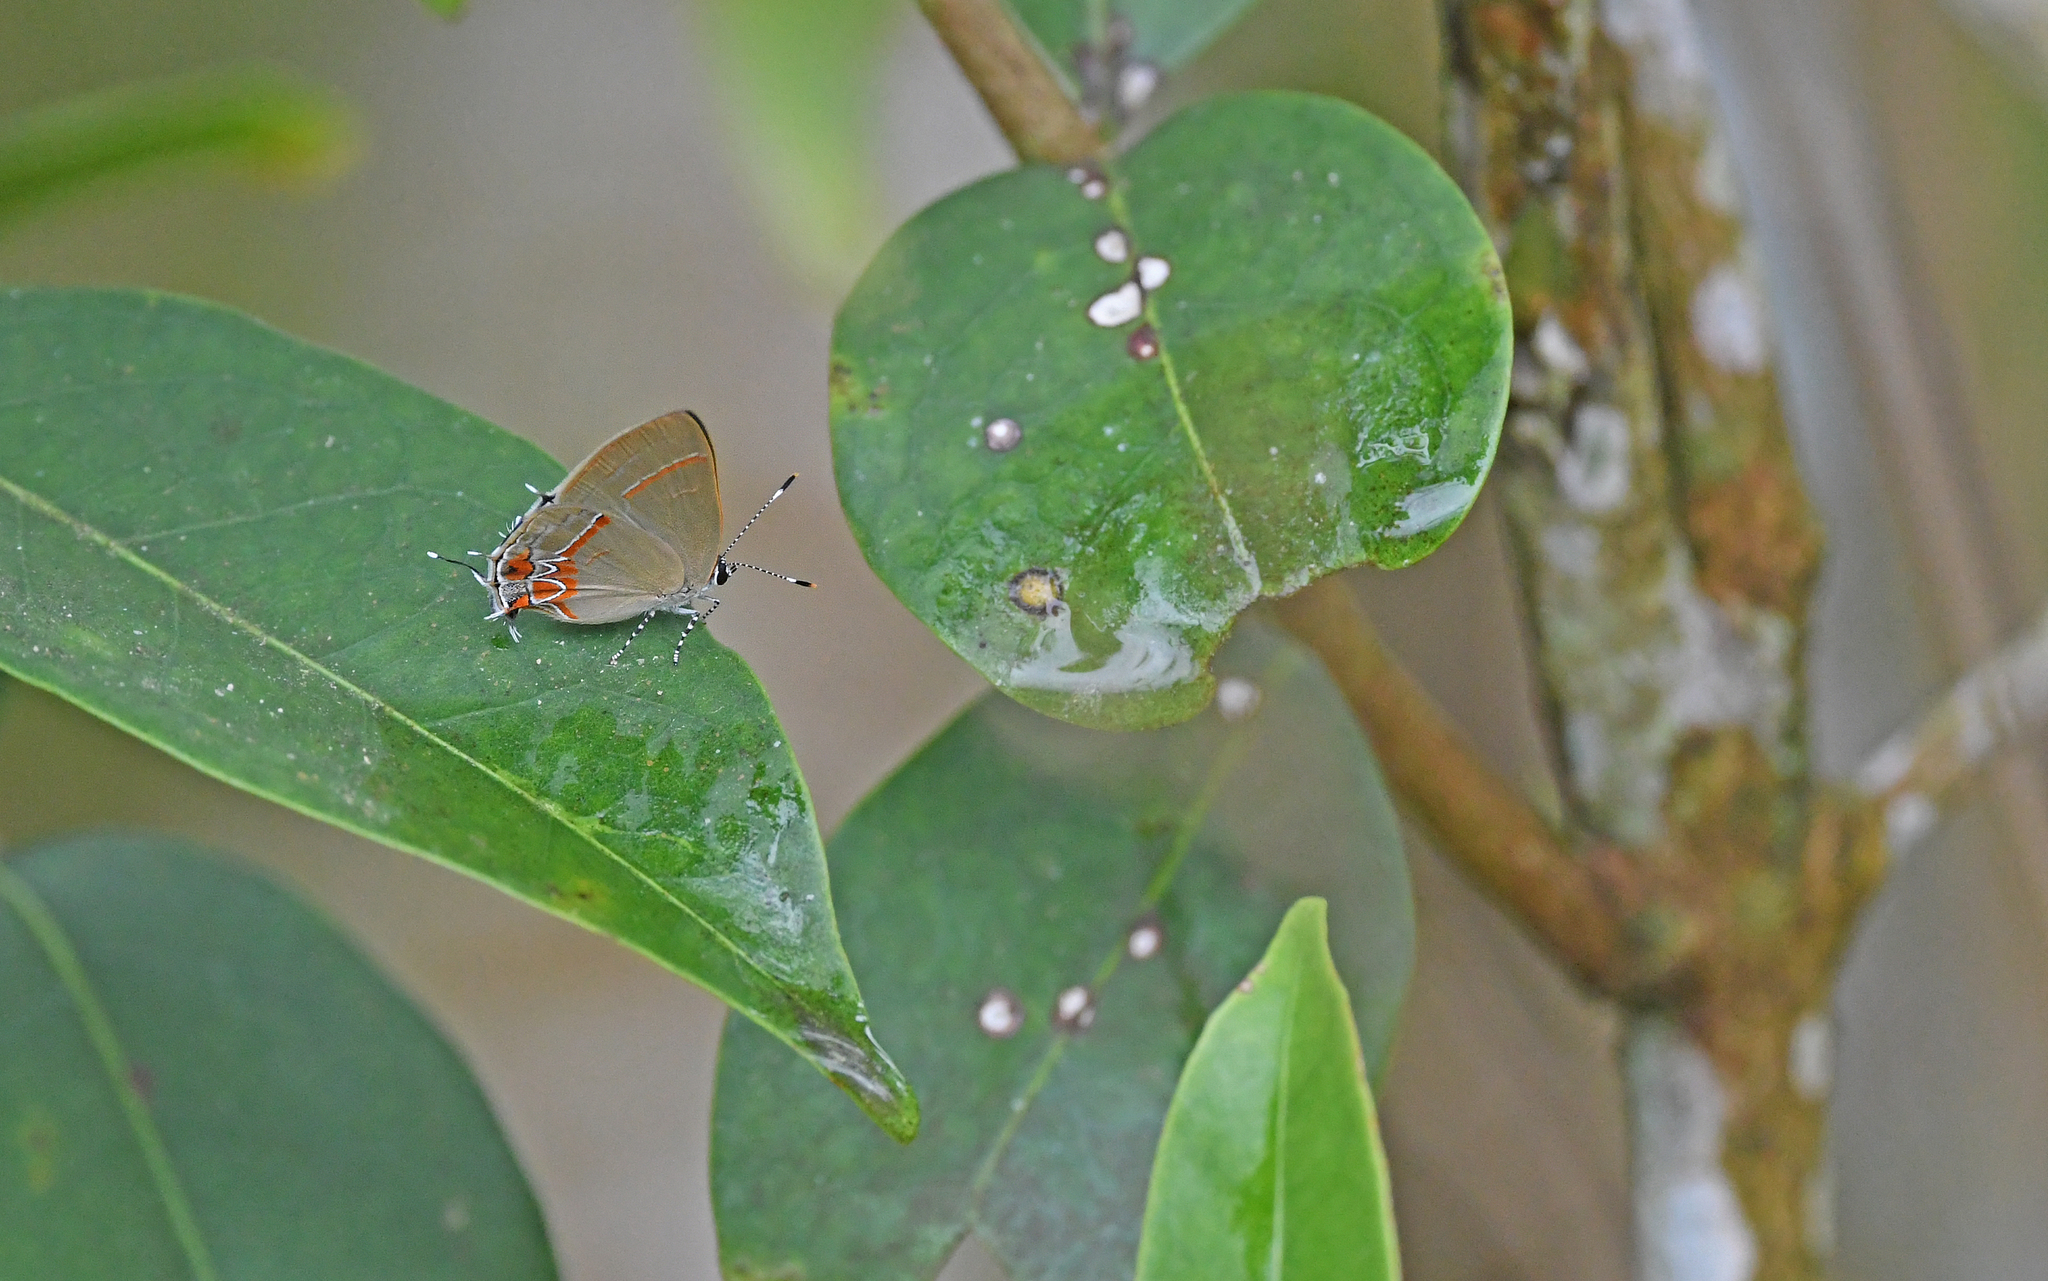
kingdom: Animalia
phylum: Arthropoda
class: Insecta
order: Lepidoptera
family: Lycaenidae
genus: Calycopis
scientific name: Calycopis isobeon
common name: Dusky-blue groundstreak
